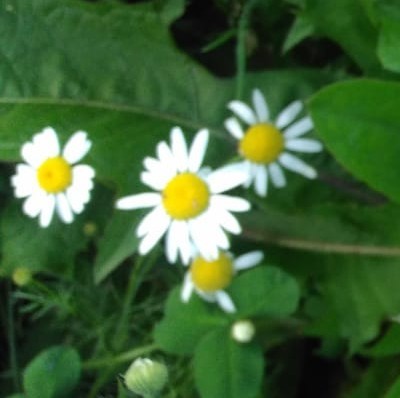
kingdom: Plantae
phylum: Tracheophyta
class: Magnoliopsida
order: Asterales
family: Asteraceae
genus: Tripleurospermum
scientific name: Tripleurospermum inodorum
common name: Scentless mayweed
